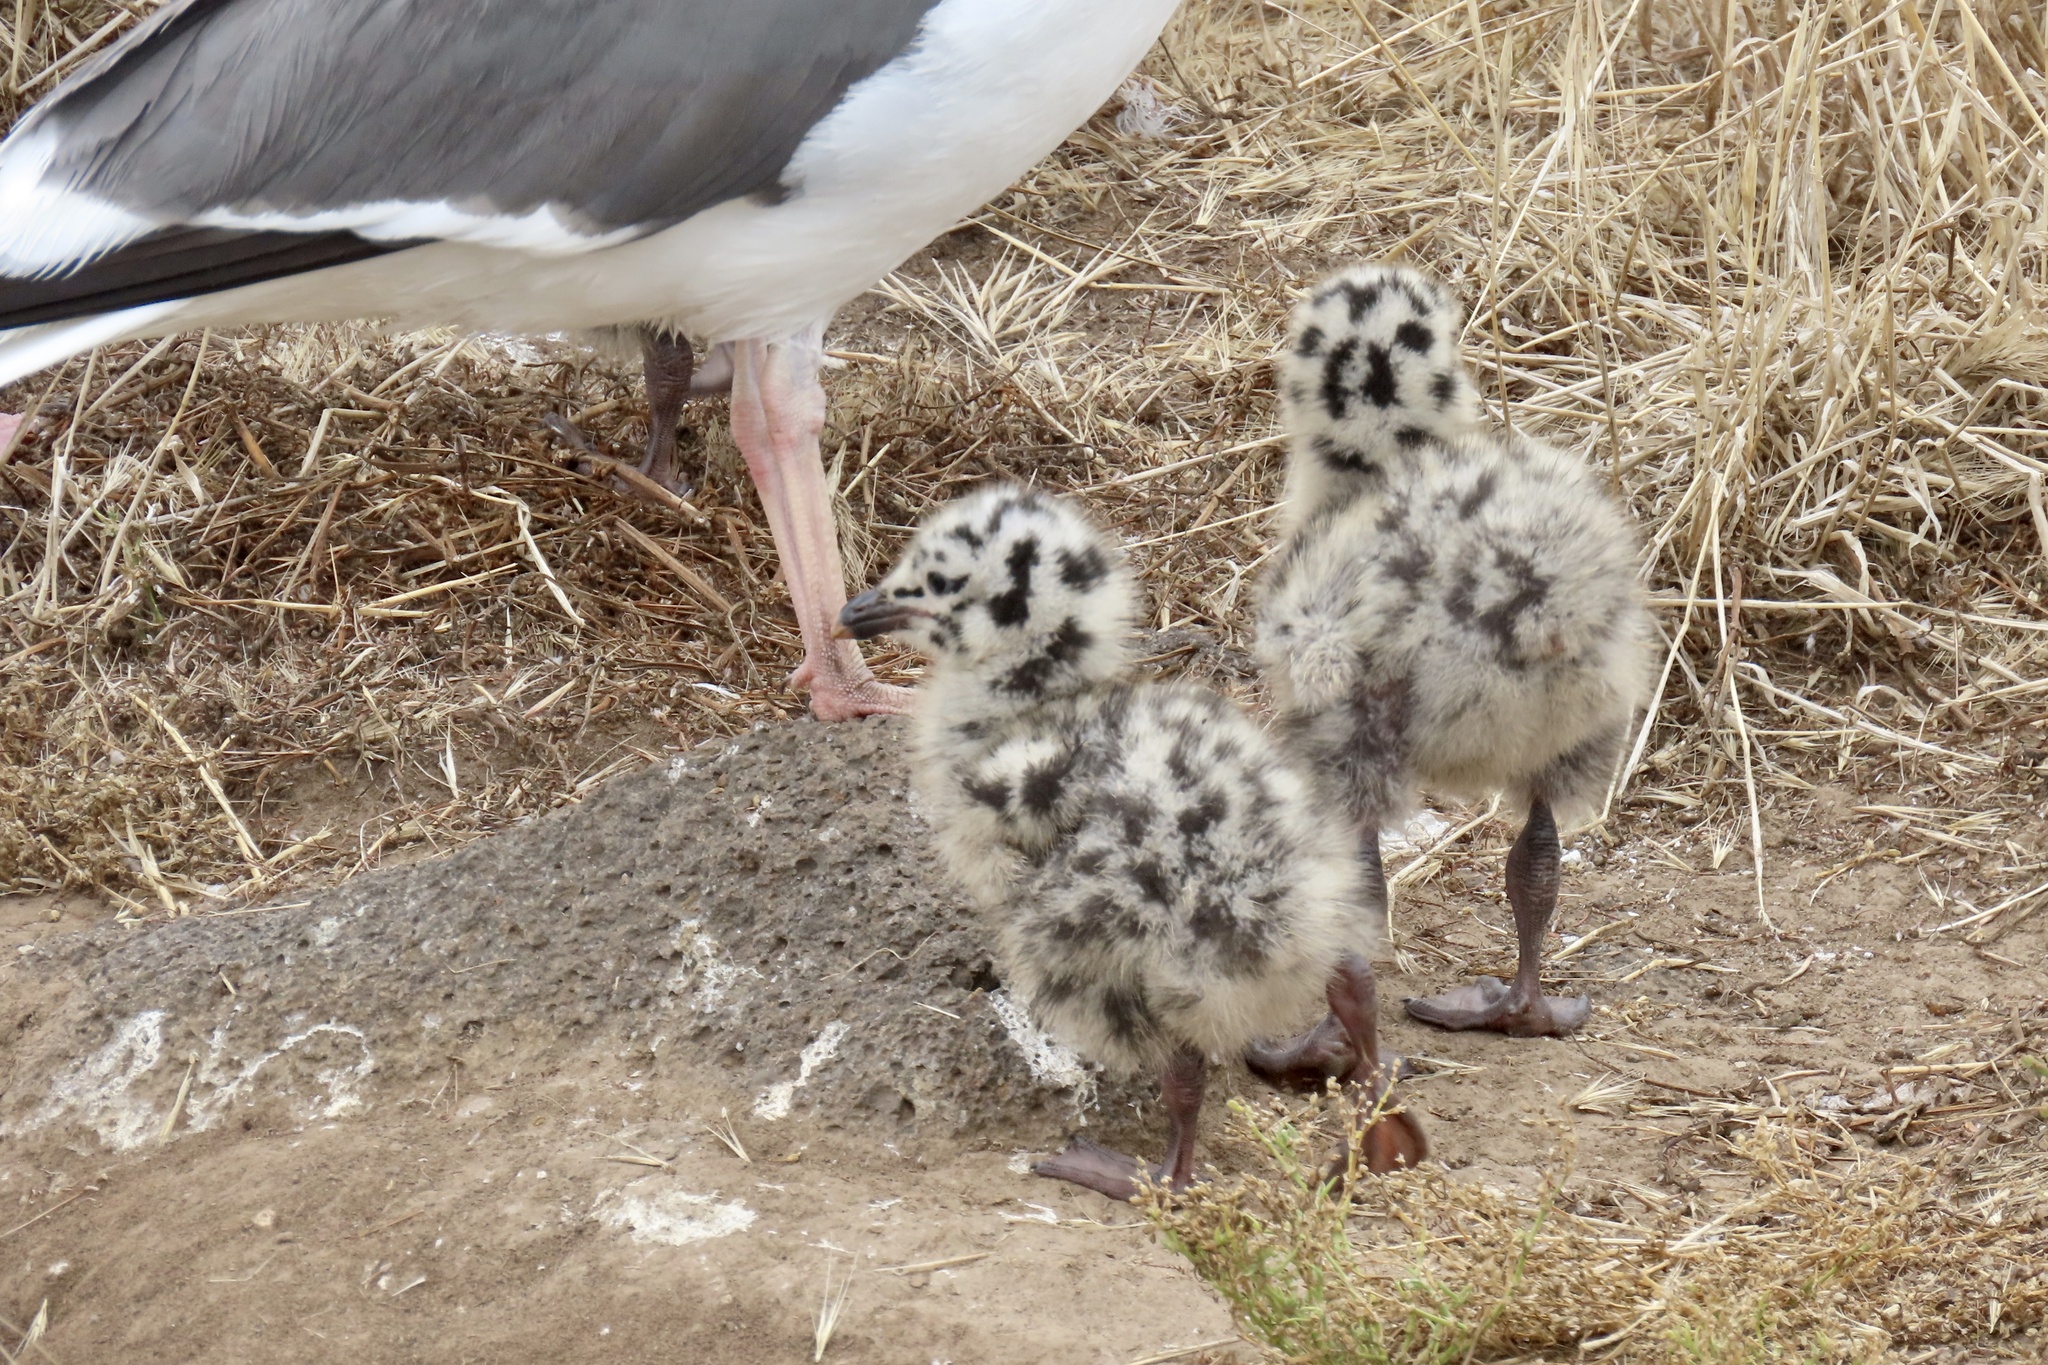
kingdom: Animalia
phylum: Chordata
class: Aves
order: Charadriiformes
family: Laridae
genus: Larus
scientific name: Larus occidentalis
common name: Western gull
